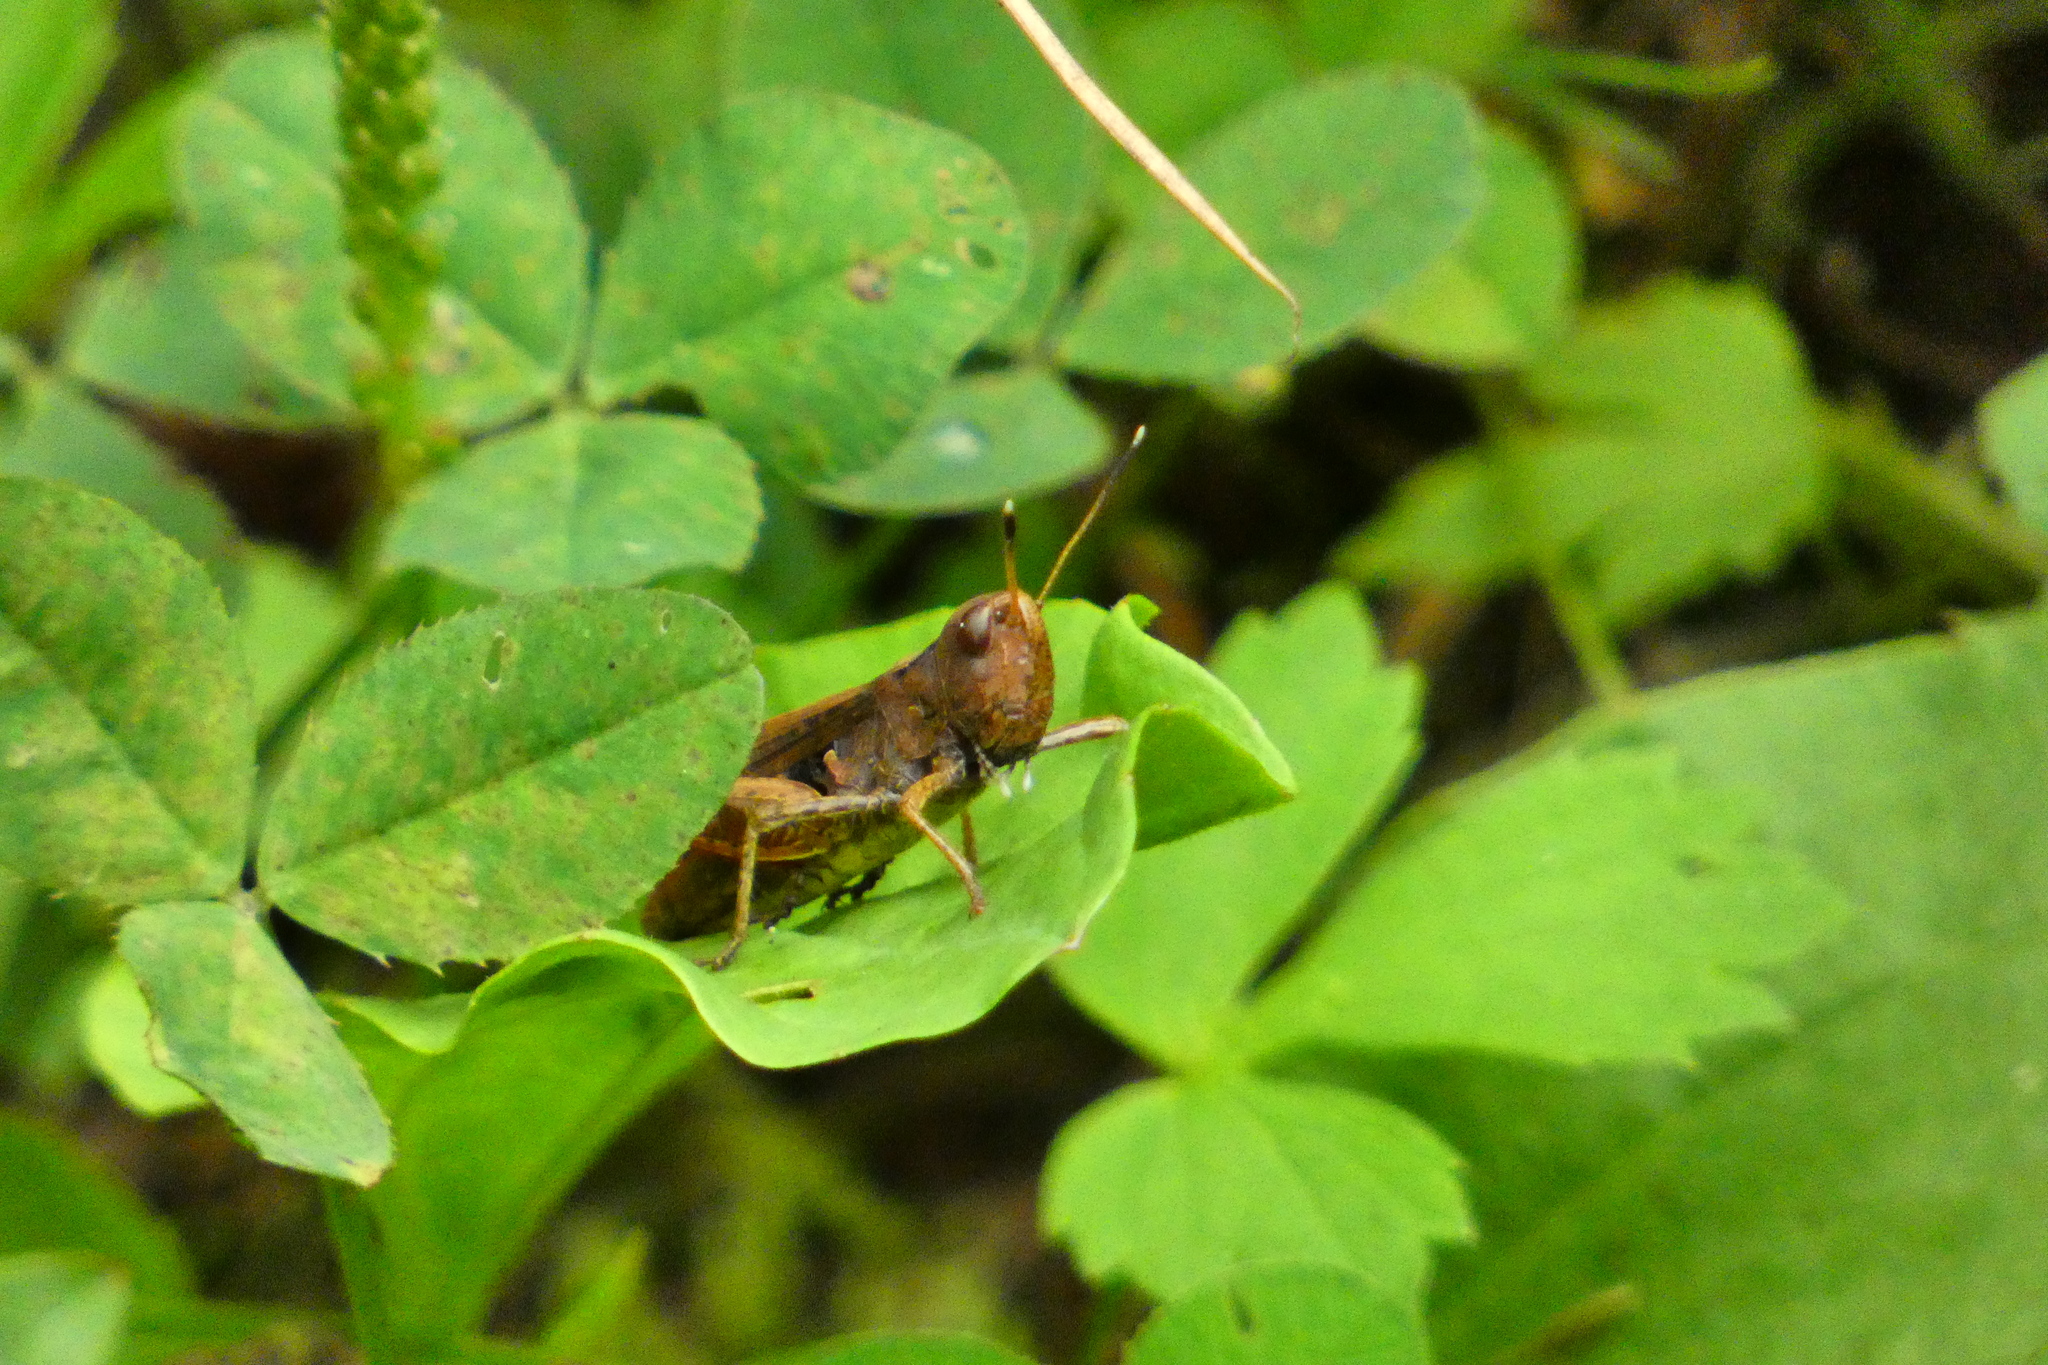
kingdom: Animalia
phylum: Arthropoda
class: Insecta
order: Orthoptera
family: Acrididae
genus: Gomphocerippus
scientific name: Gomphocerippus rufus
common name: Rufous grasshopper
